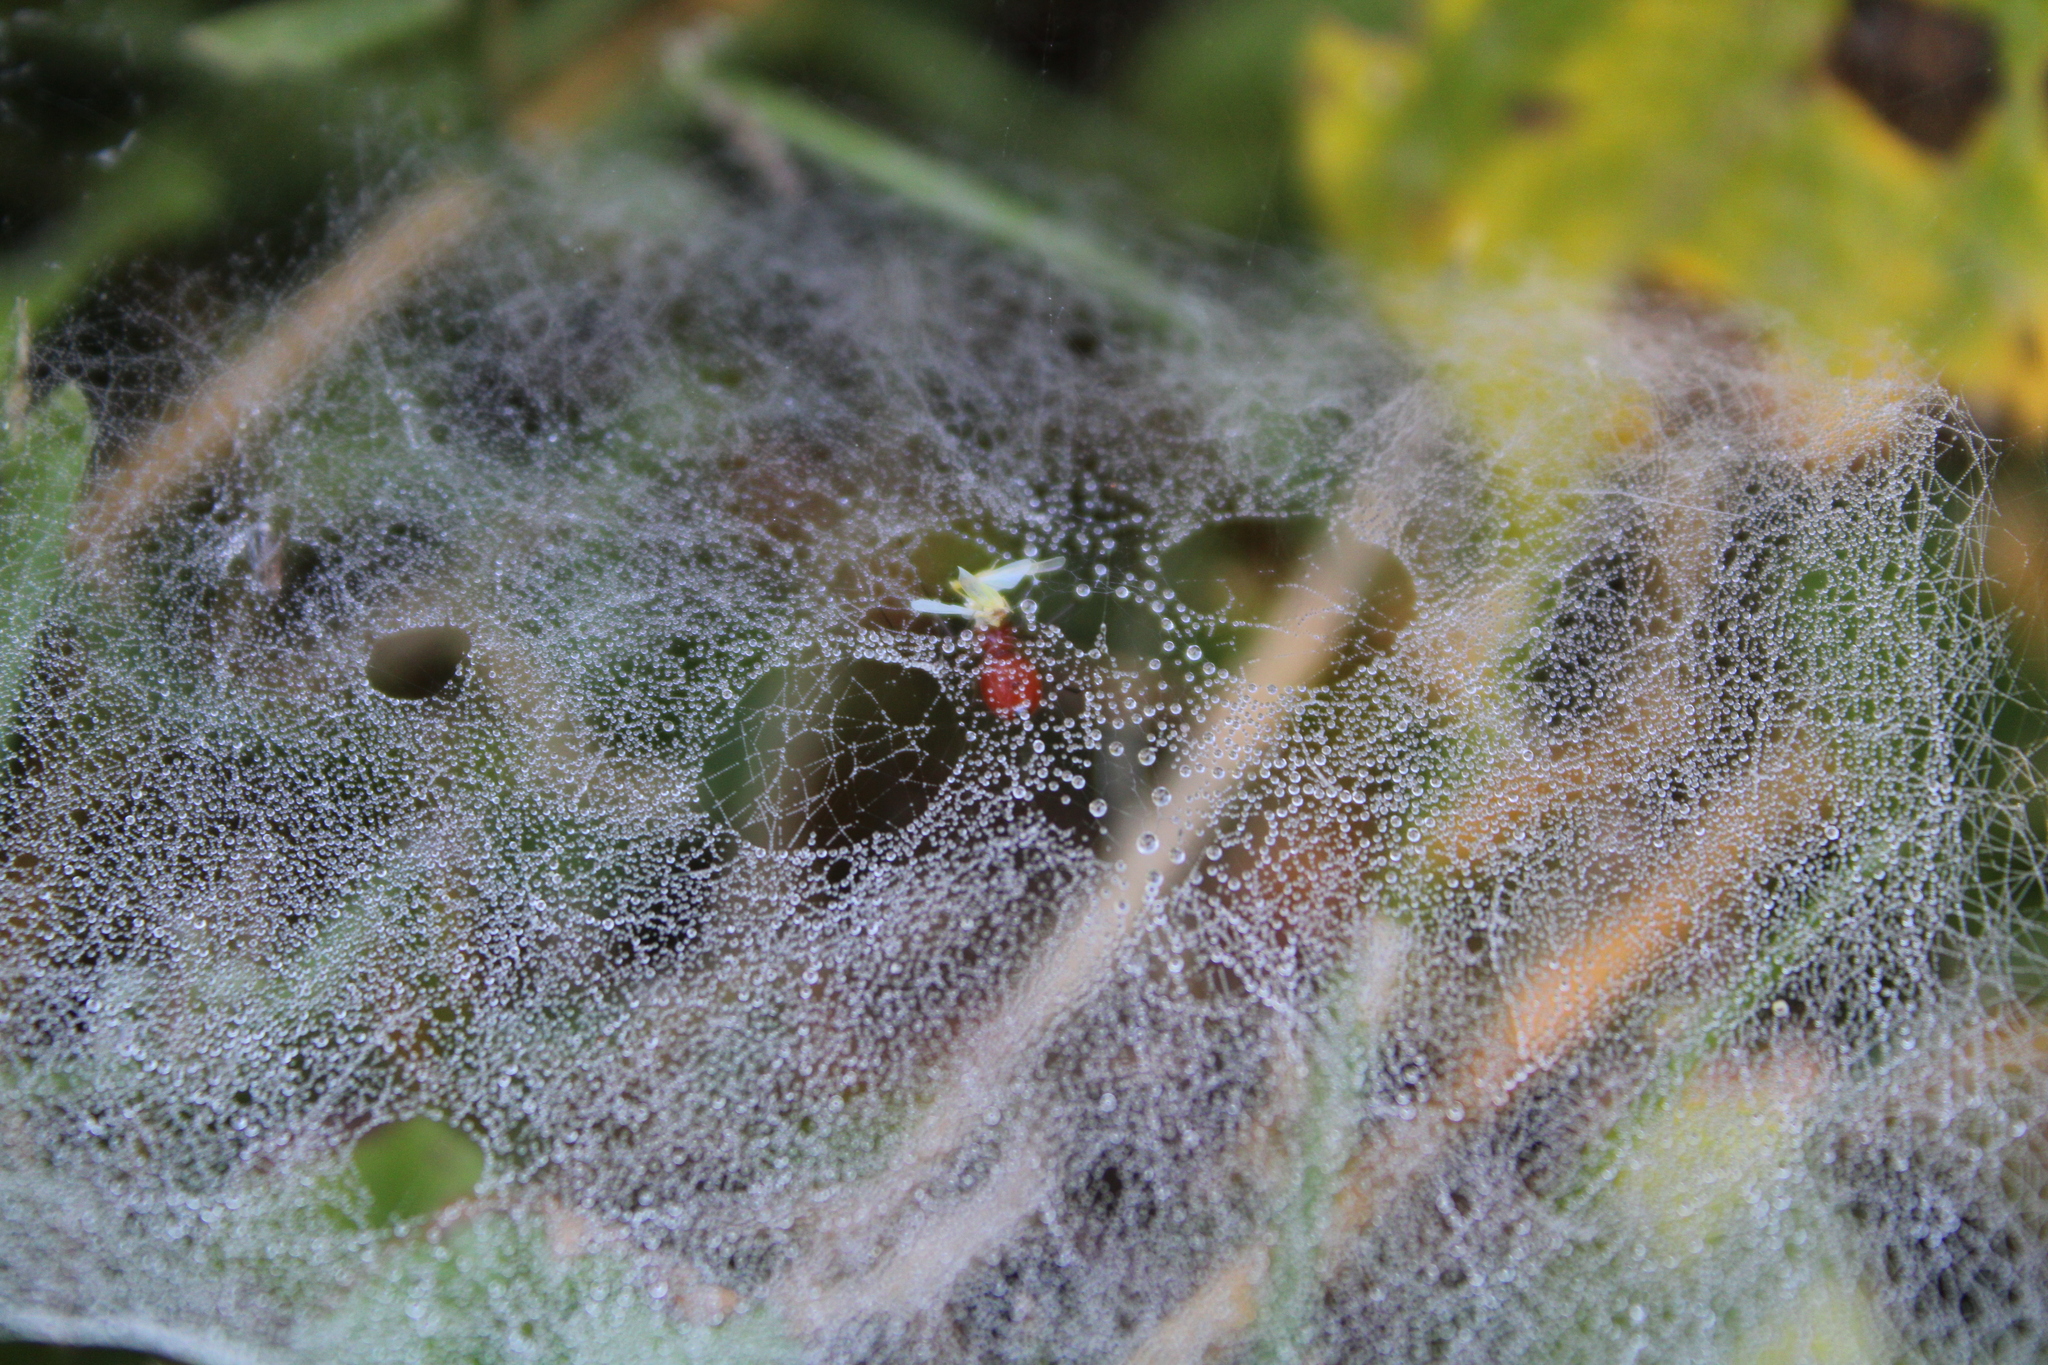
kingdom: Animalia
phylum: Arthropoda
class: Arachnida
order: Araneae
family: Linyphiidae
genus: Florinda
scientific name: Florinda coccinea
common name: Black-tailed red sheetweaver
